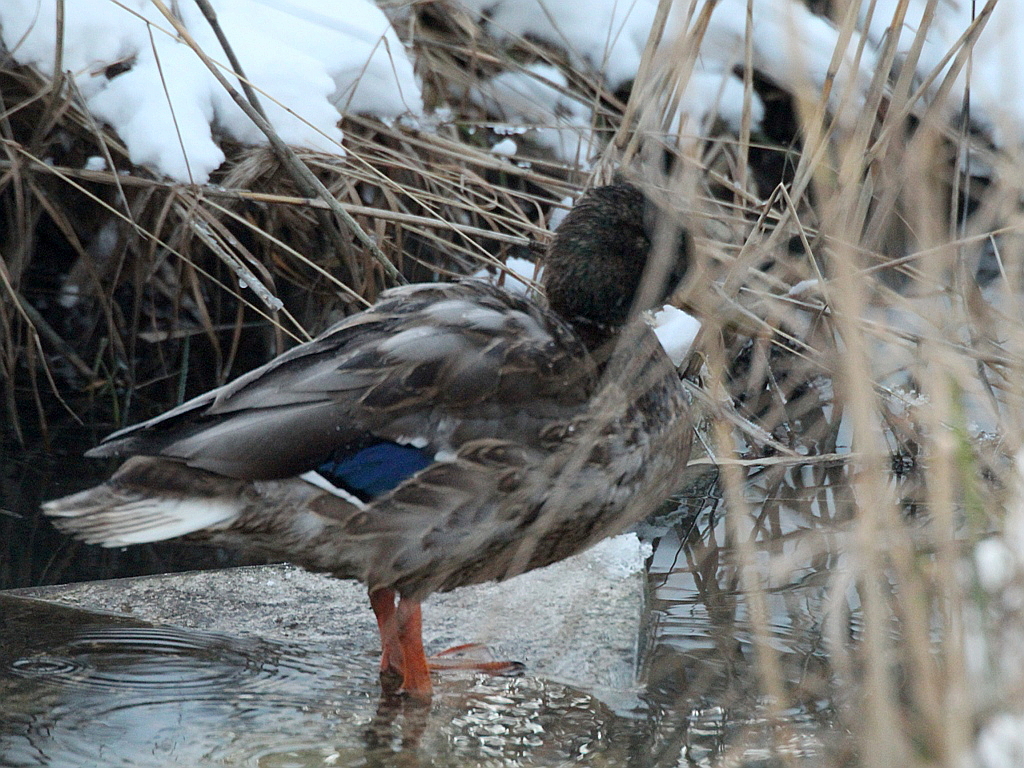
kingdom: Animalia
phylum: Chordata
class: Aves
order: Anseriformes
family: Anatidae
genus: Anas
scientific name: Anas platyrhynchos
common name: Mallard
